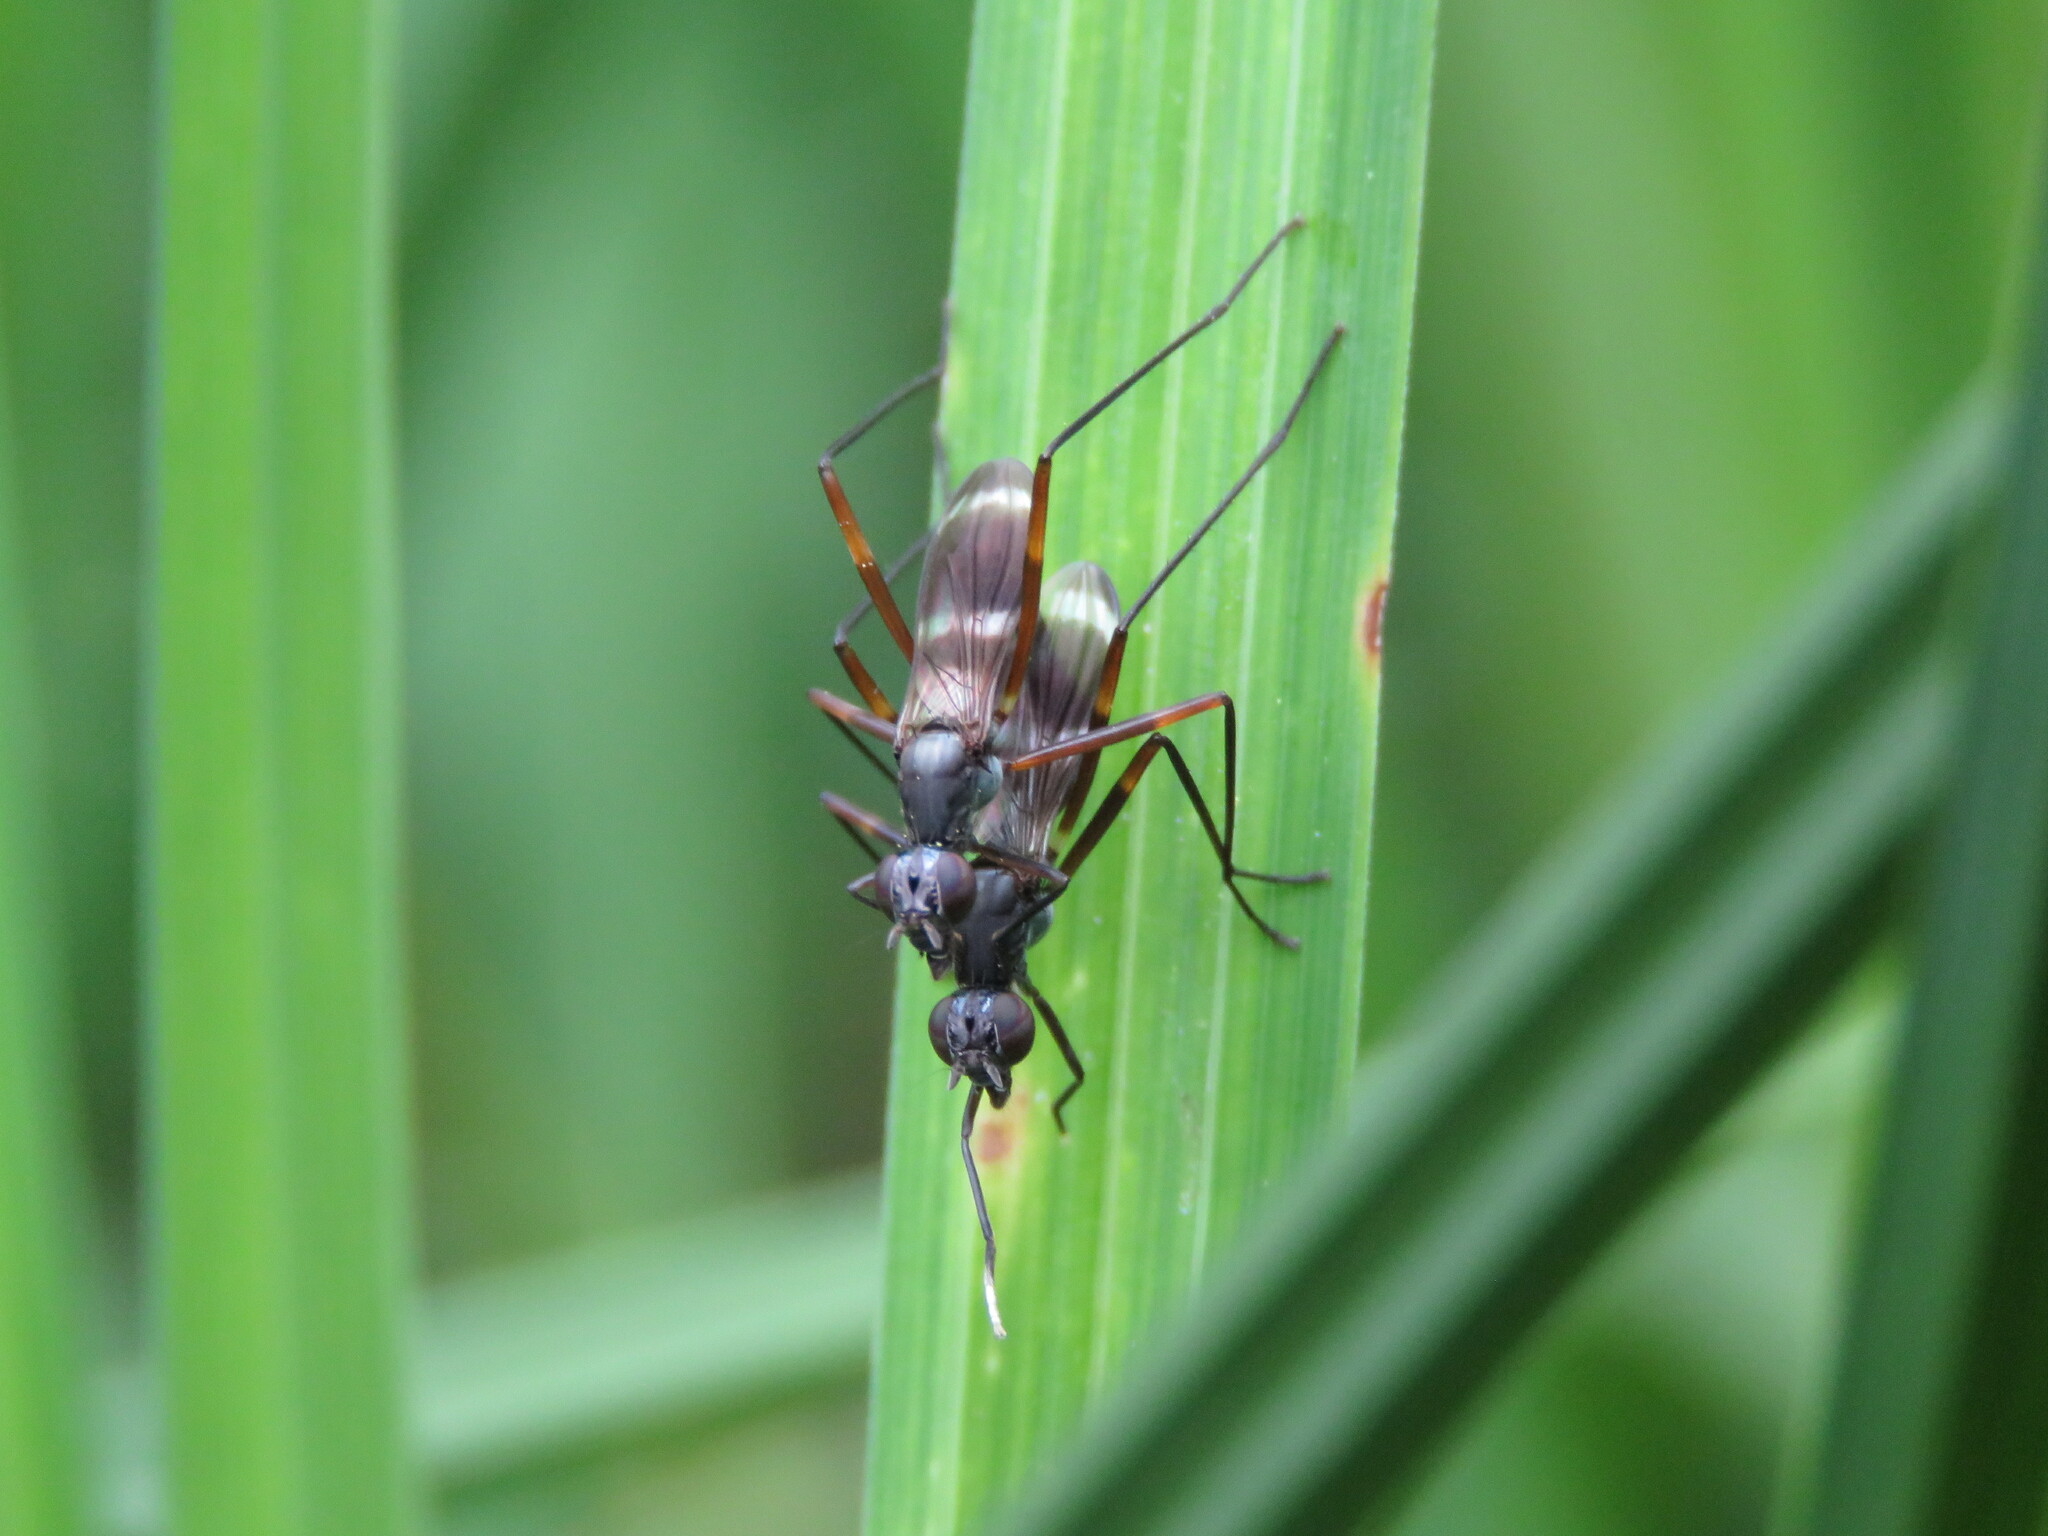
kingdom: Animalia
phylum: Arthropoda
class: Insecta
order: Diptera
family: Micropezidae
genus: Taeniaptera
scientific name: Taeniaptera trivittata
